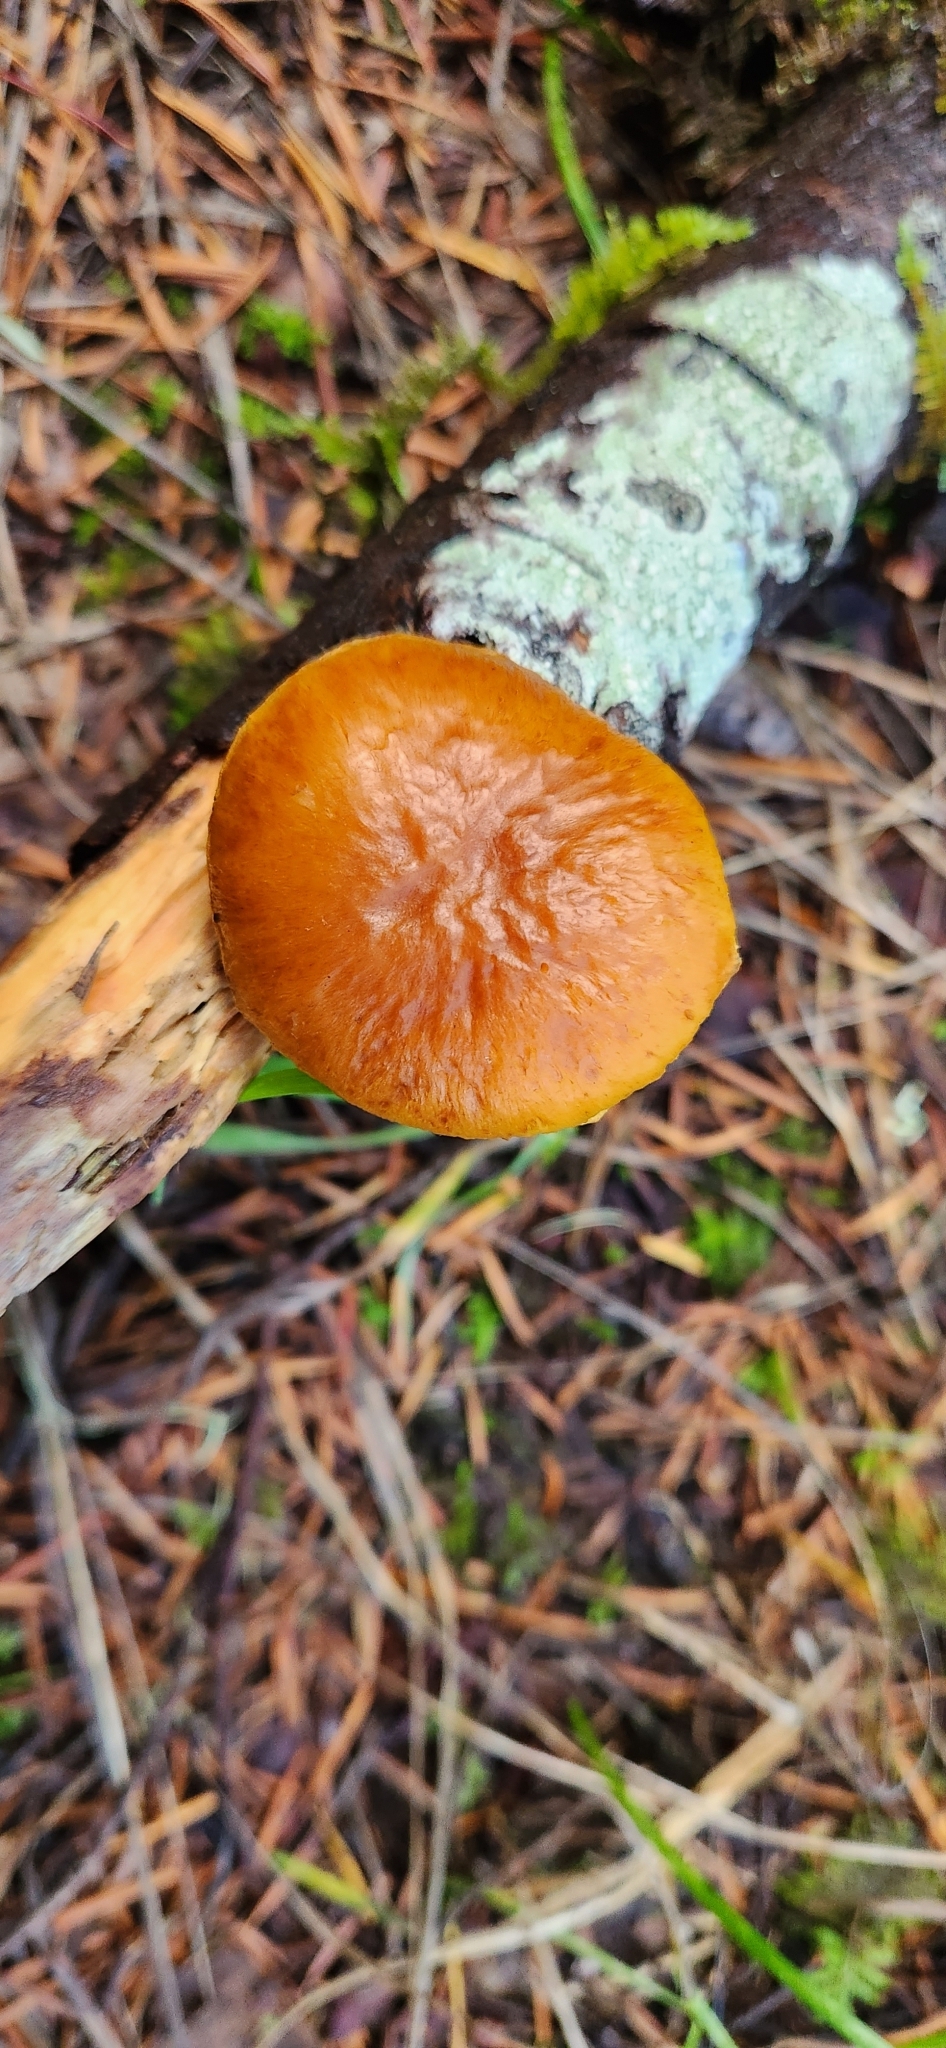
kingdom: Fungi
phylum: Basidiomycota
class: Agaricomycetes
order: Agaricales
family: Hymenogastraceae
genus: Gymnopilus
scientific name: Gymnopilus sapineus
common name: Scaly rustgill
